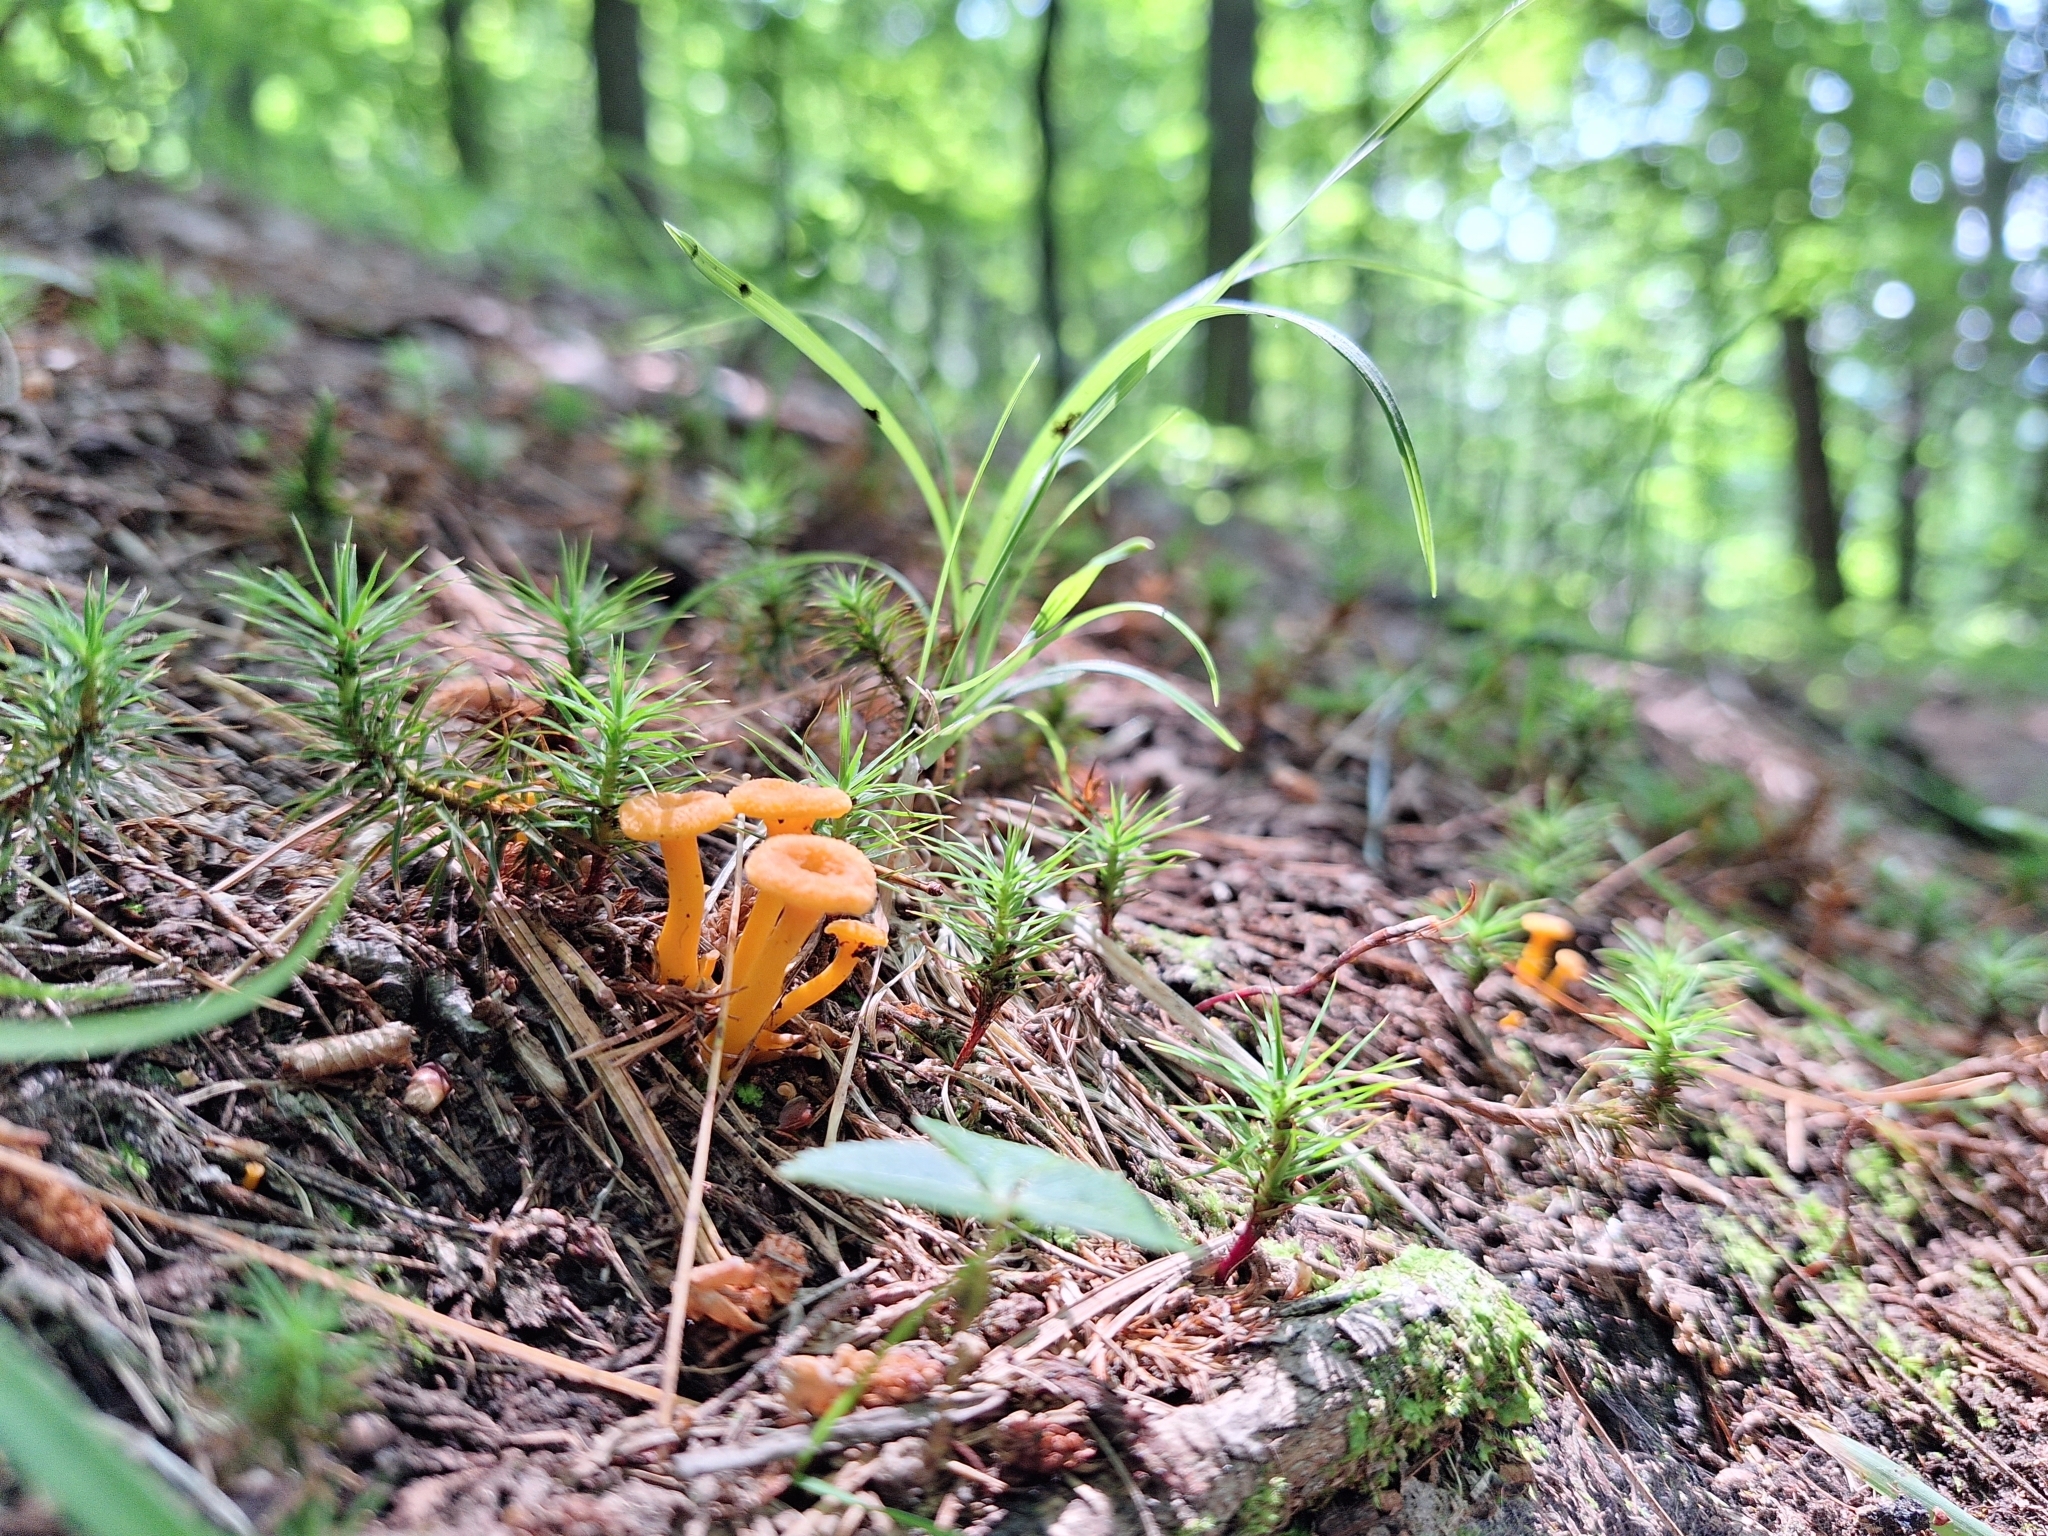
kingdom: Fungi
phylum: Basidiomycota
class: Agaricomycetes
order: Cantharellales
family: Hydnaceae
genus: Craterellus
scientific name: Craterellus ignicolor
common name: Flame chanterelle
